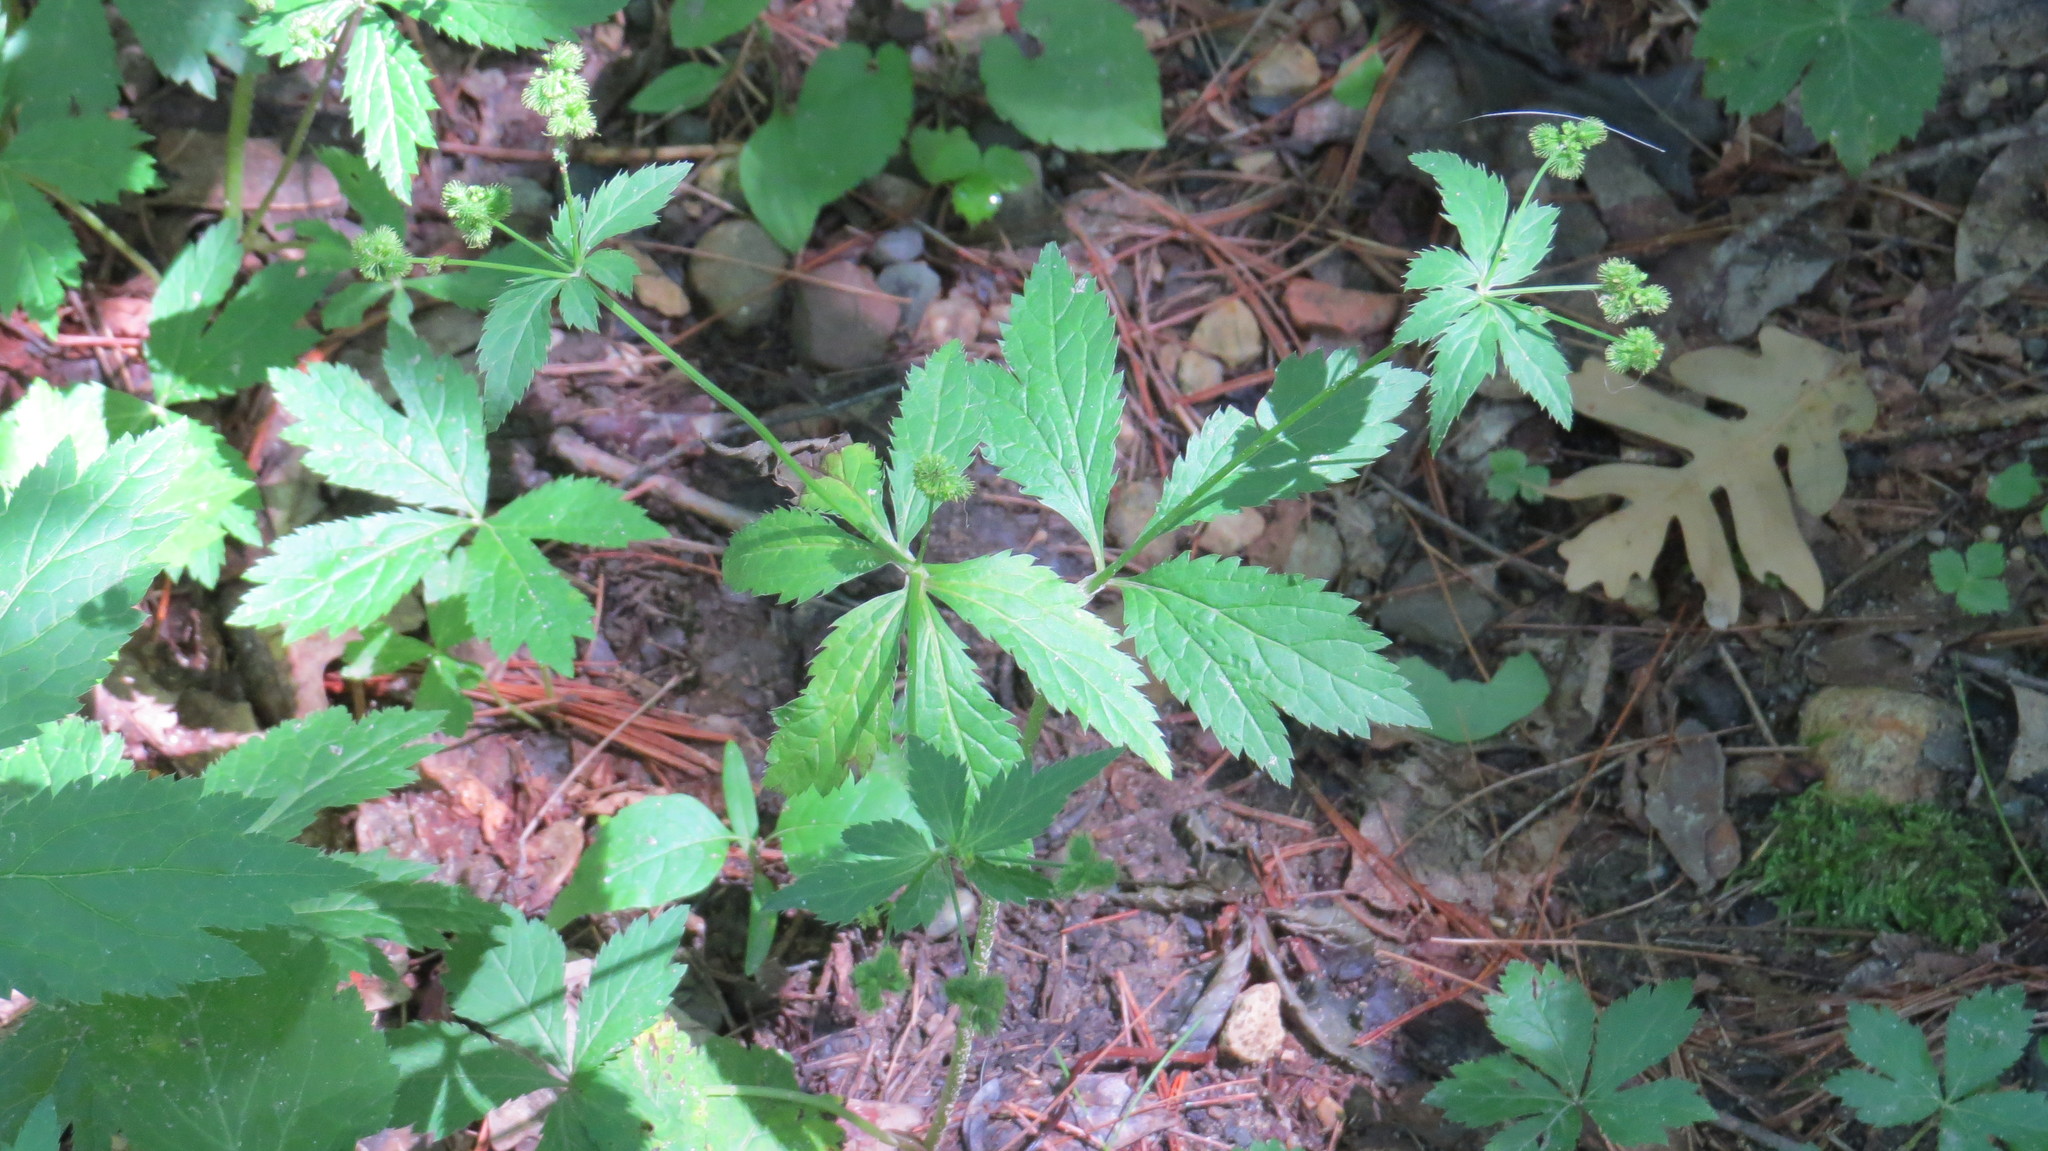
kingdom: Plantae
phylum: Tracheophyta
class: Magnoliopsida
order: Apiales
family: Apiaceae
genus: Sanicula
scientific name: Sanicula canadensis
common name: Canada sanicle
